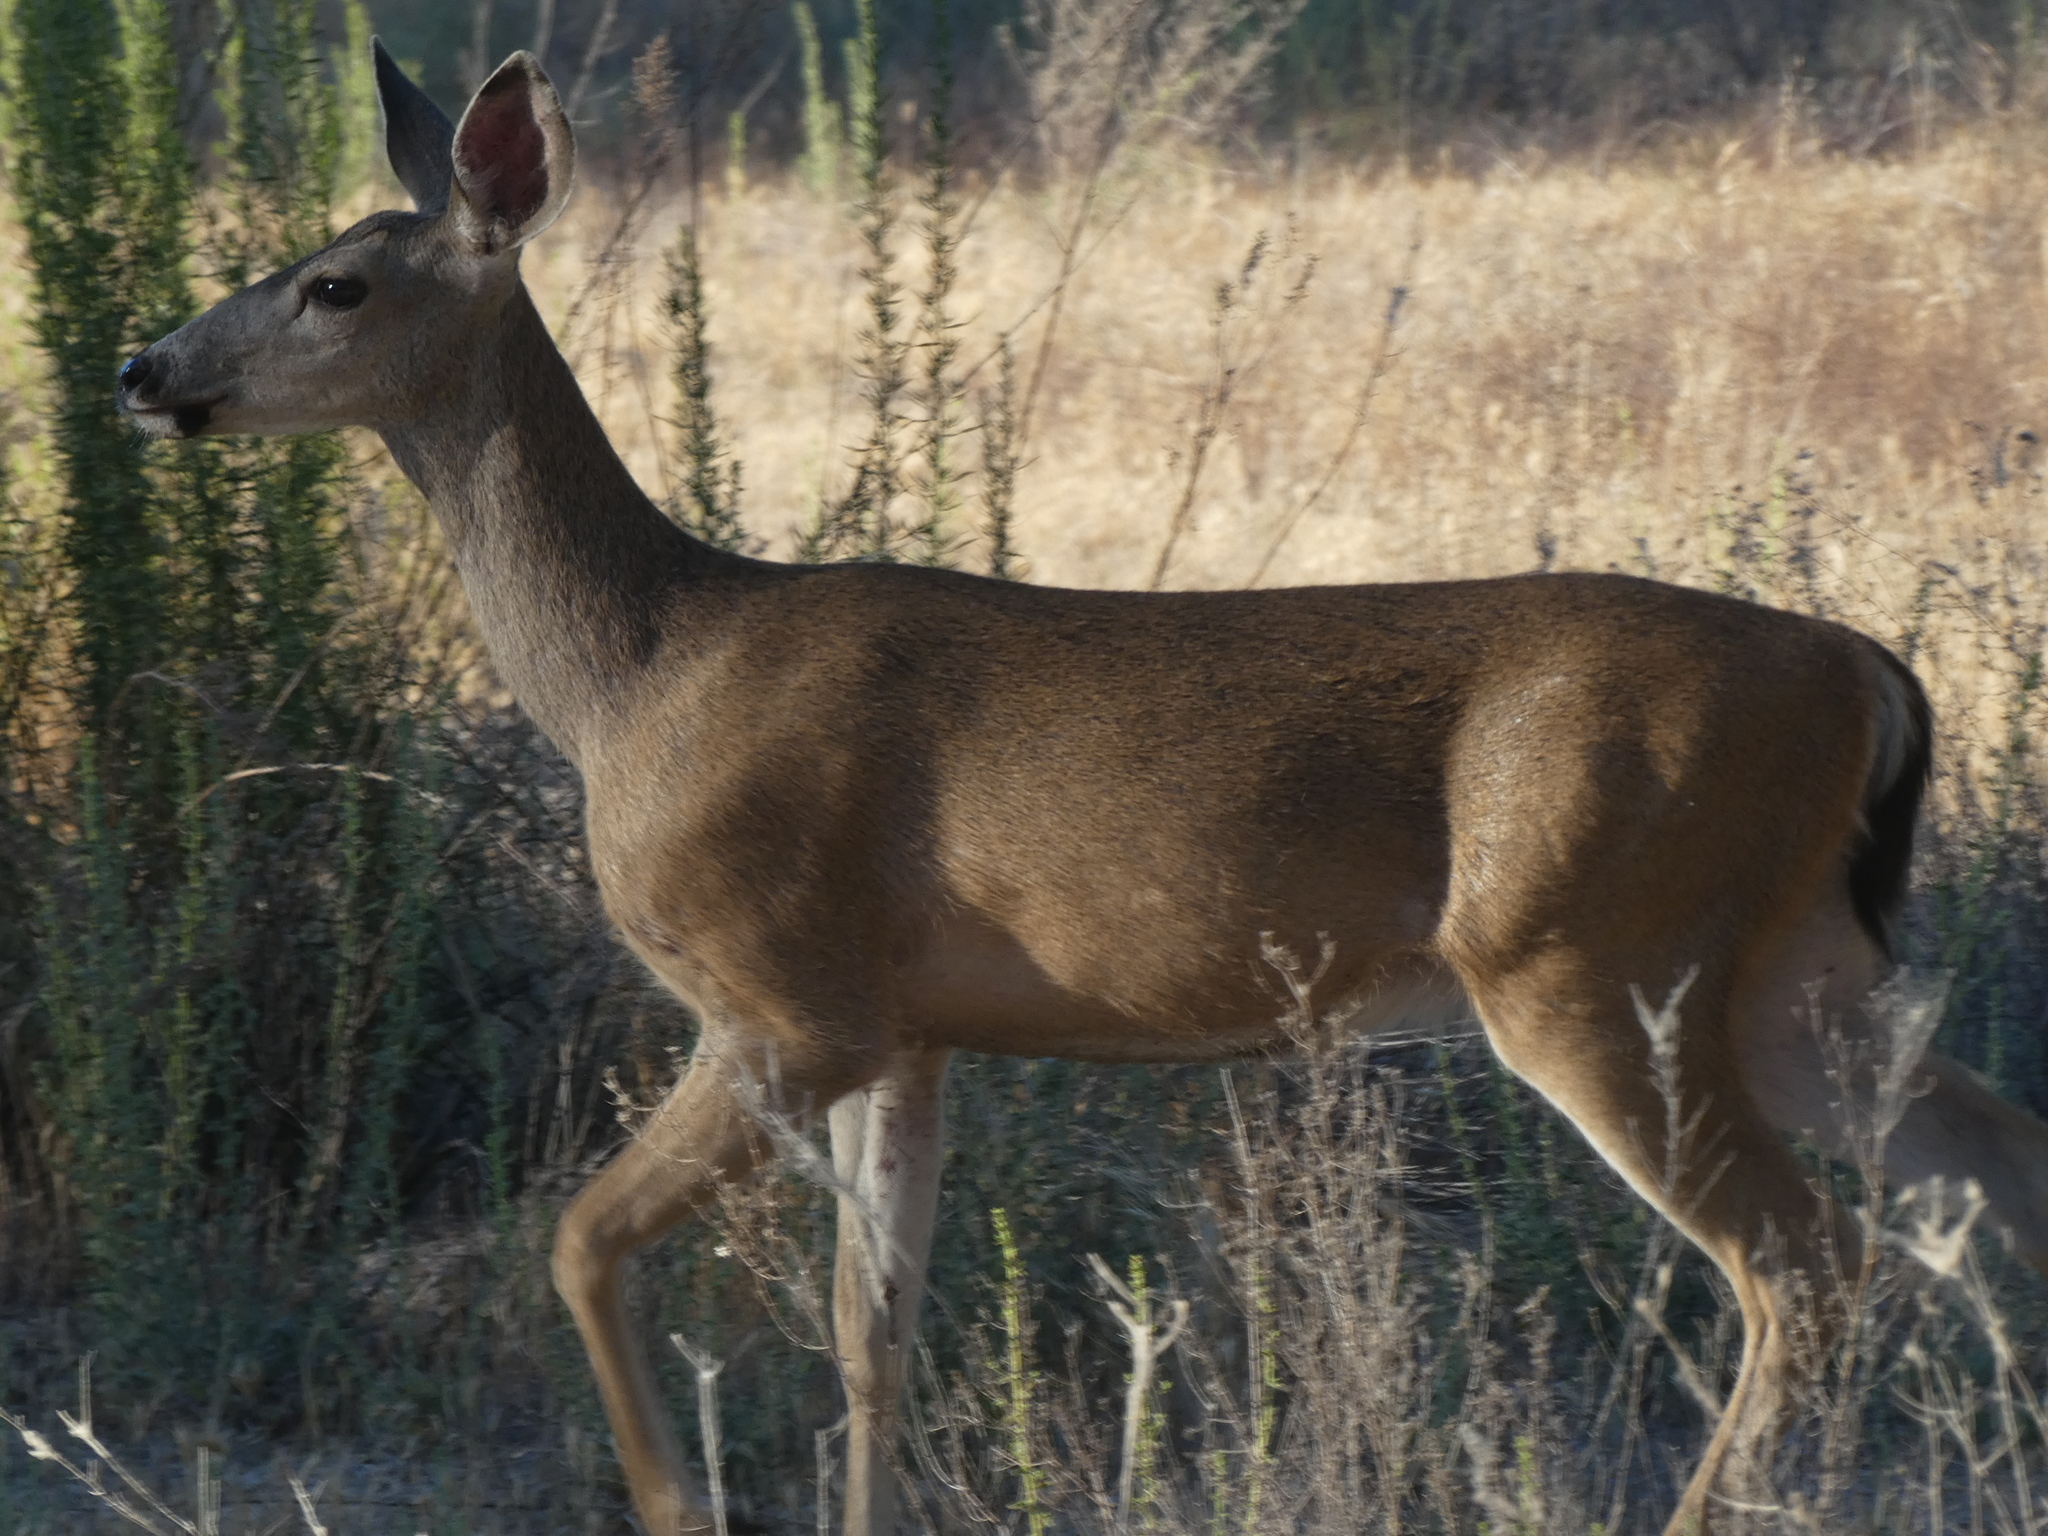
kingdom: Animalia
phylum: Chordata
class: Mammalia
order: Artiodactyla
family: Cervidae
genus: Odocoileus
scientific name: Odocoileus hemionus
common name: Mule deer
